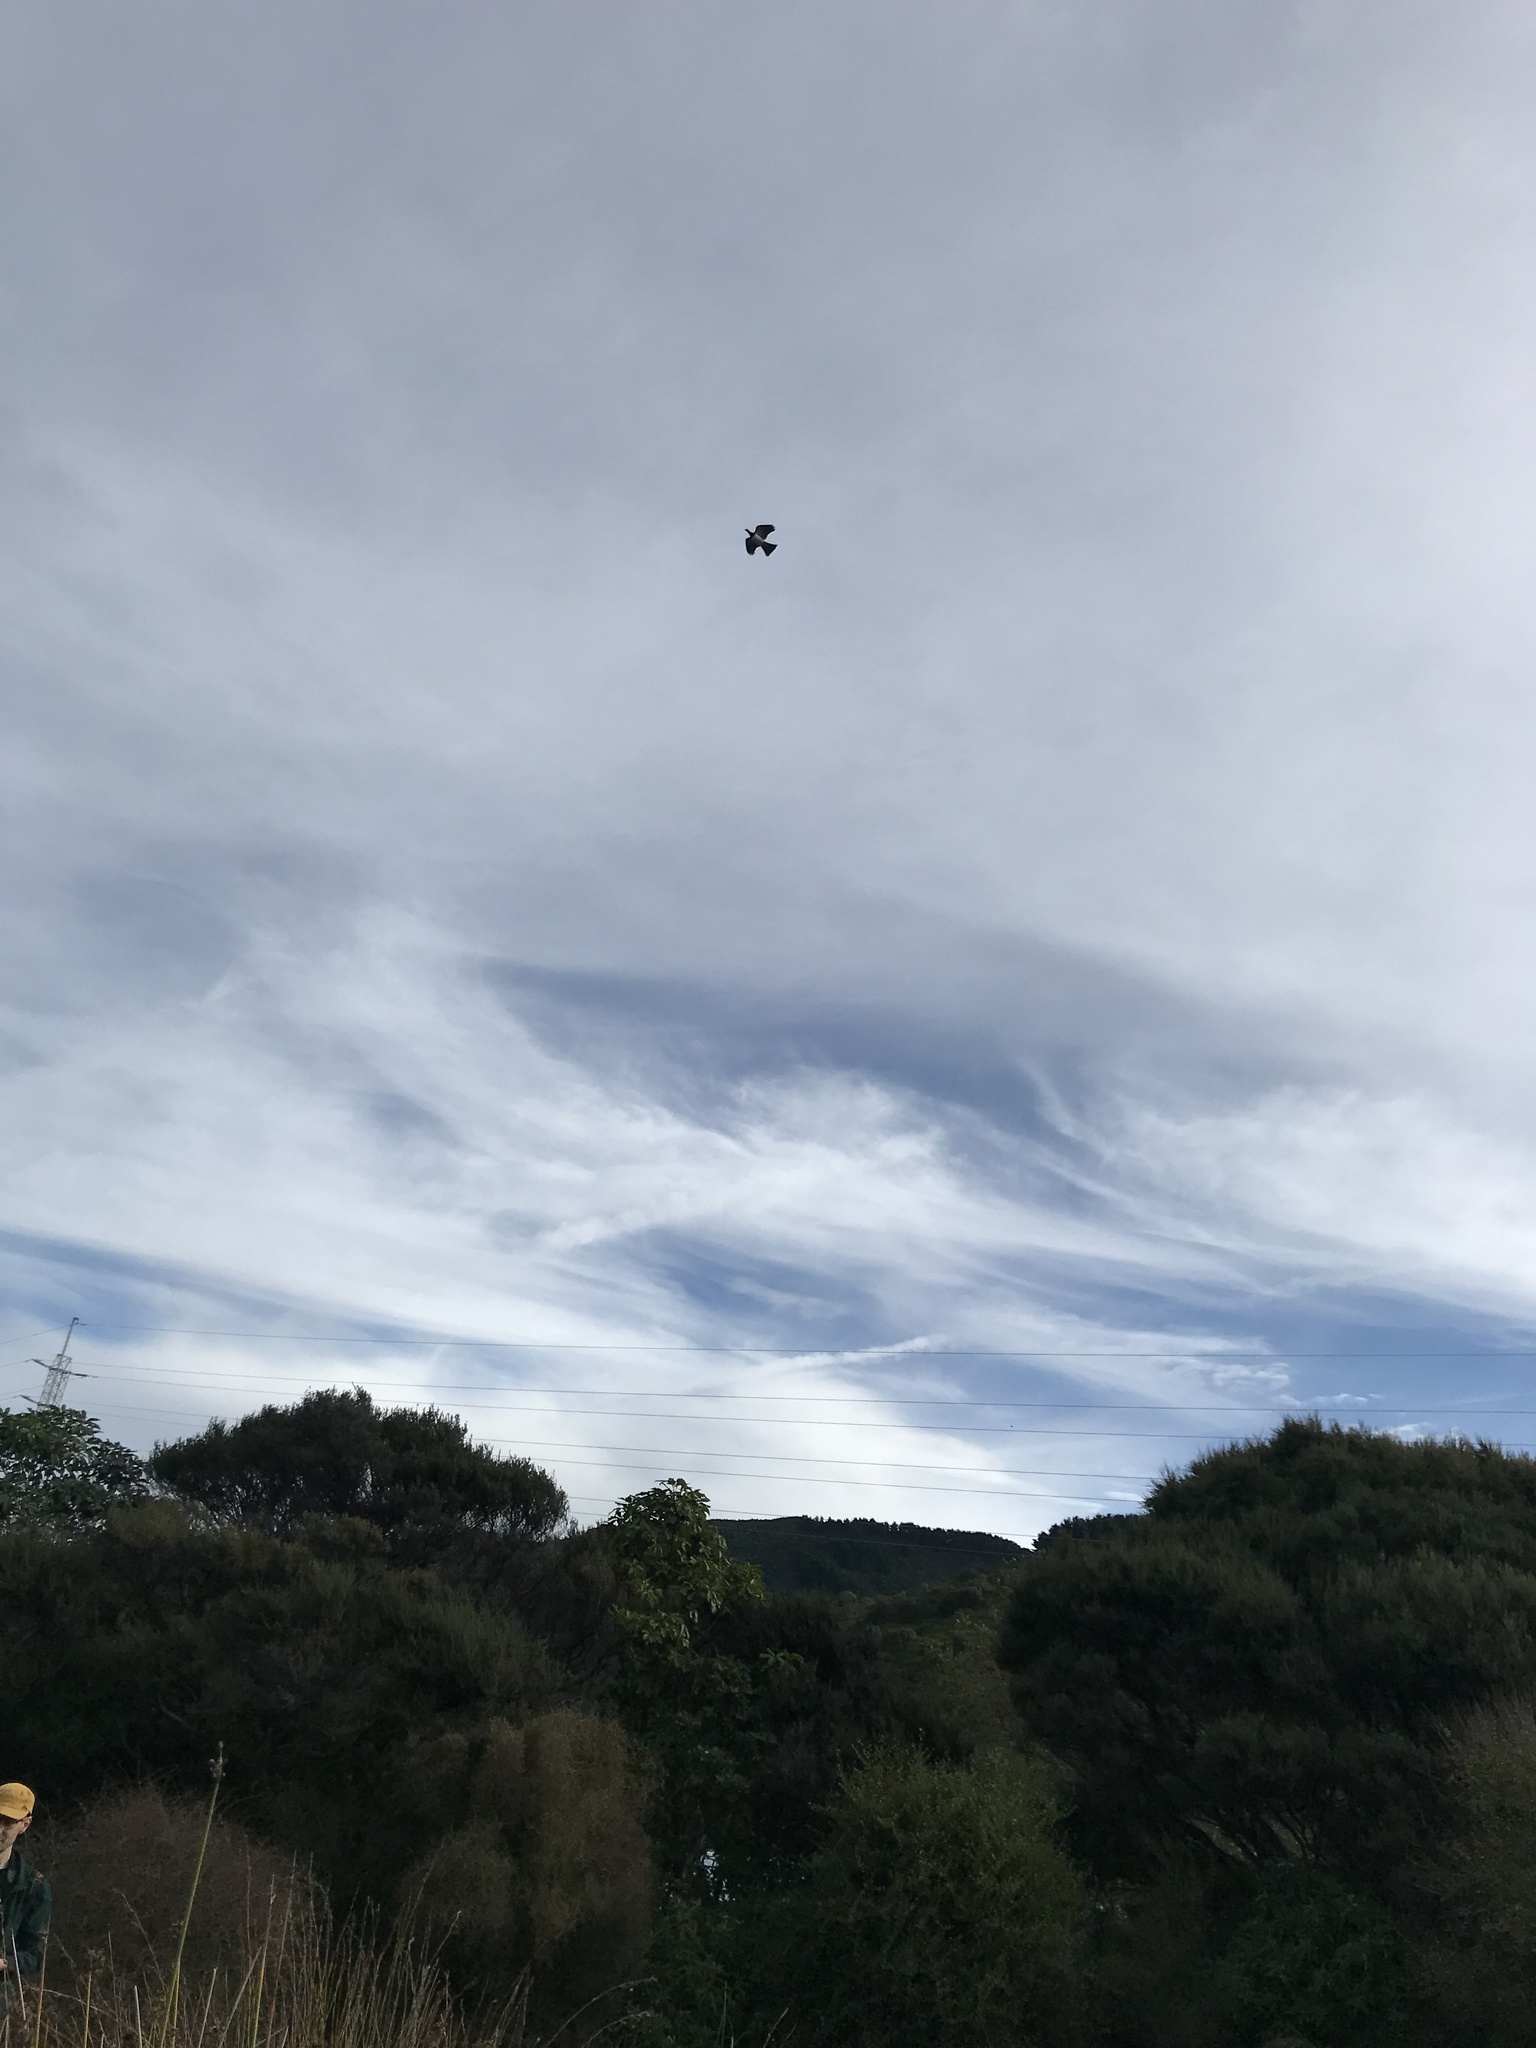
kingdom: Animalia
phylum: Chordata
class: Aves
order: Columbiformes
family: Columbidae
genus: Hemiphaga
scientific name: Hemiphaga novaeseelandiae
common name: New zealand pigeon
